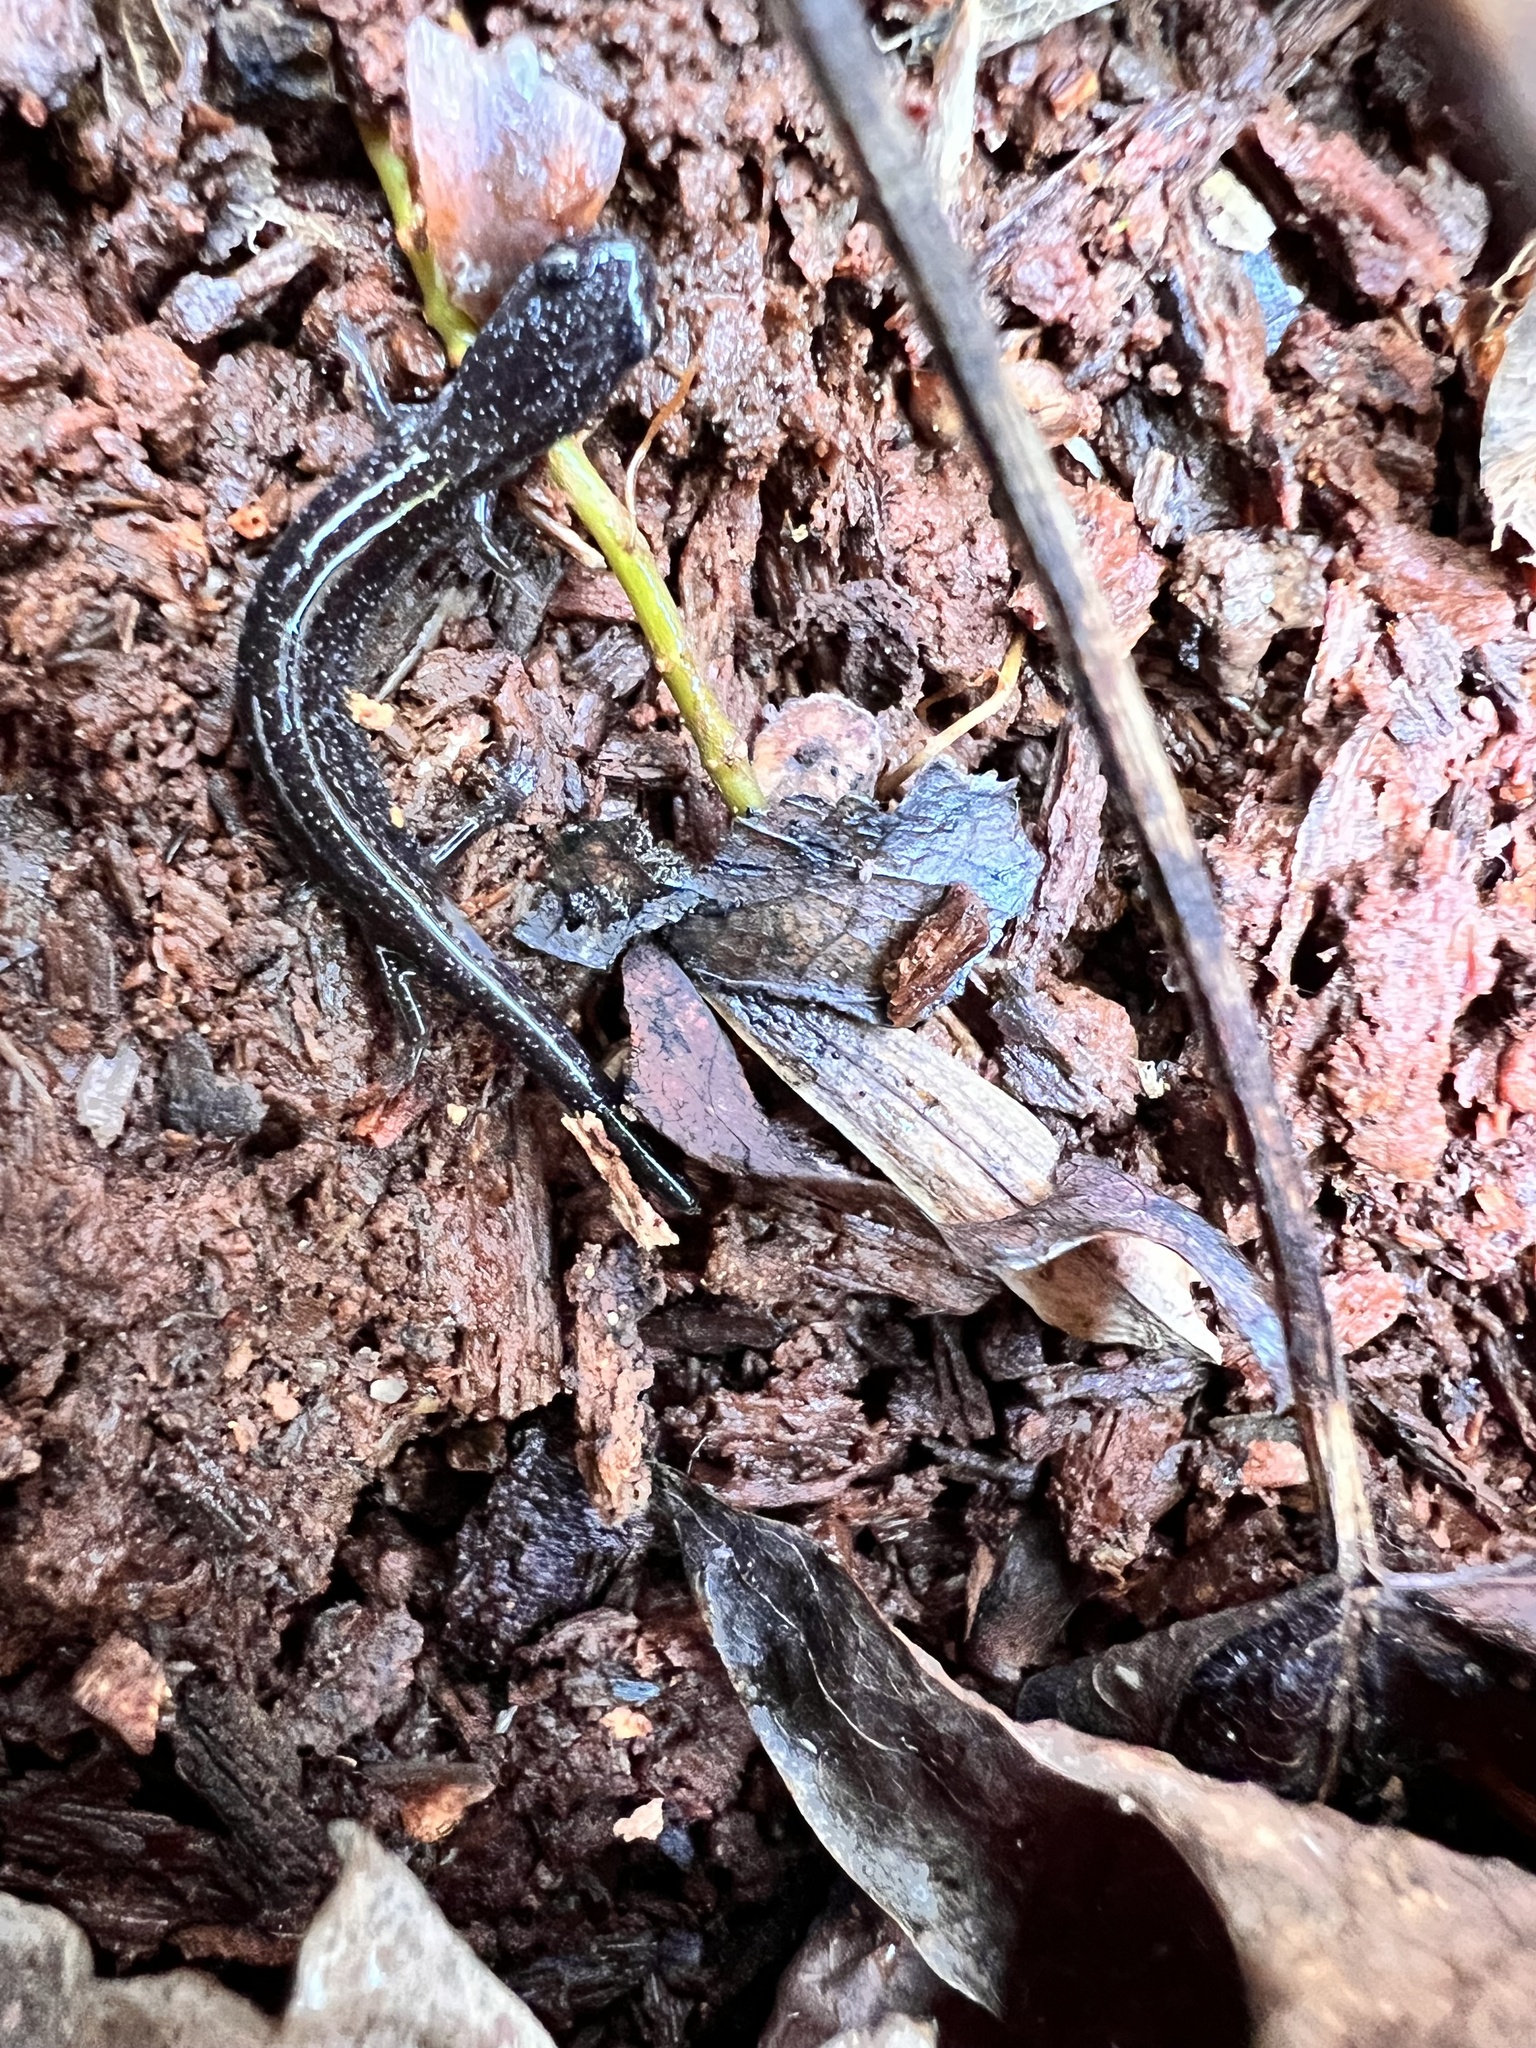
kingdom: Animalia
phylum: Chordata
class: Amphibia
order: Caudata
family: Plethodontidae
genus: Plethodon
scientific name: Plethodon cinereus
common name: Redback salamander
